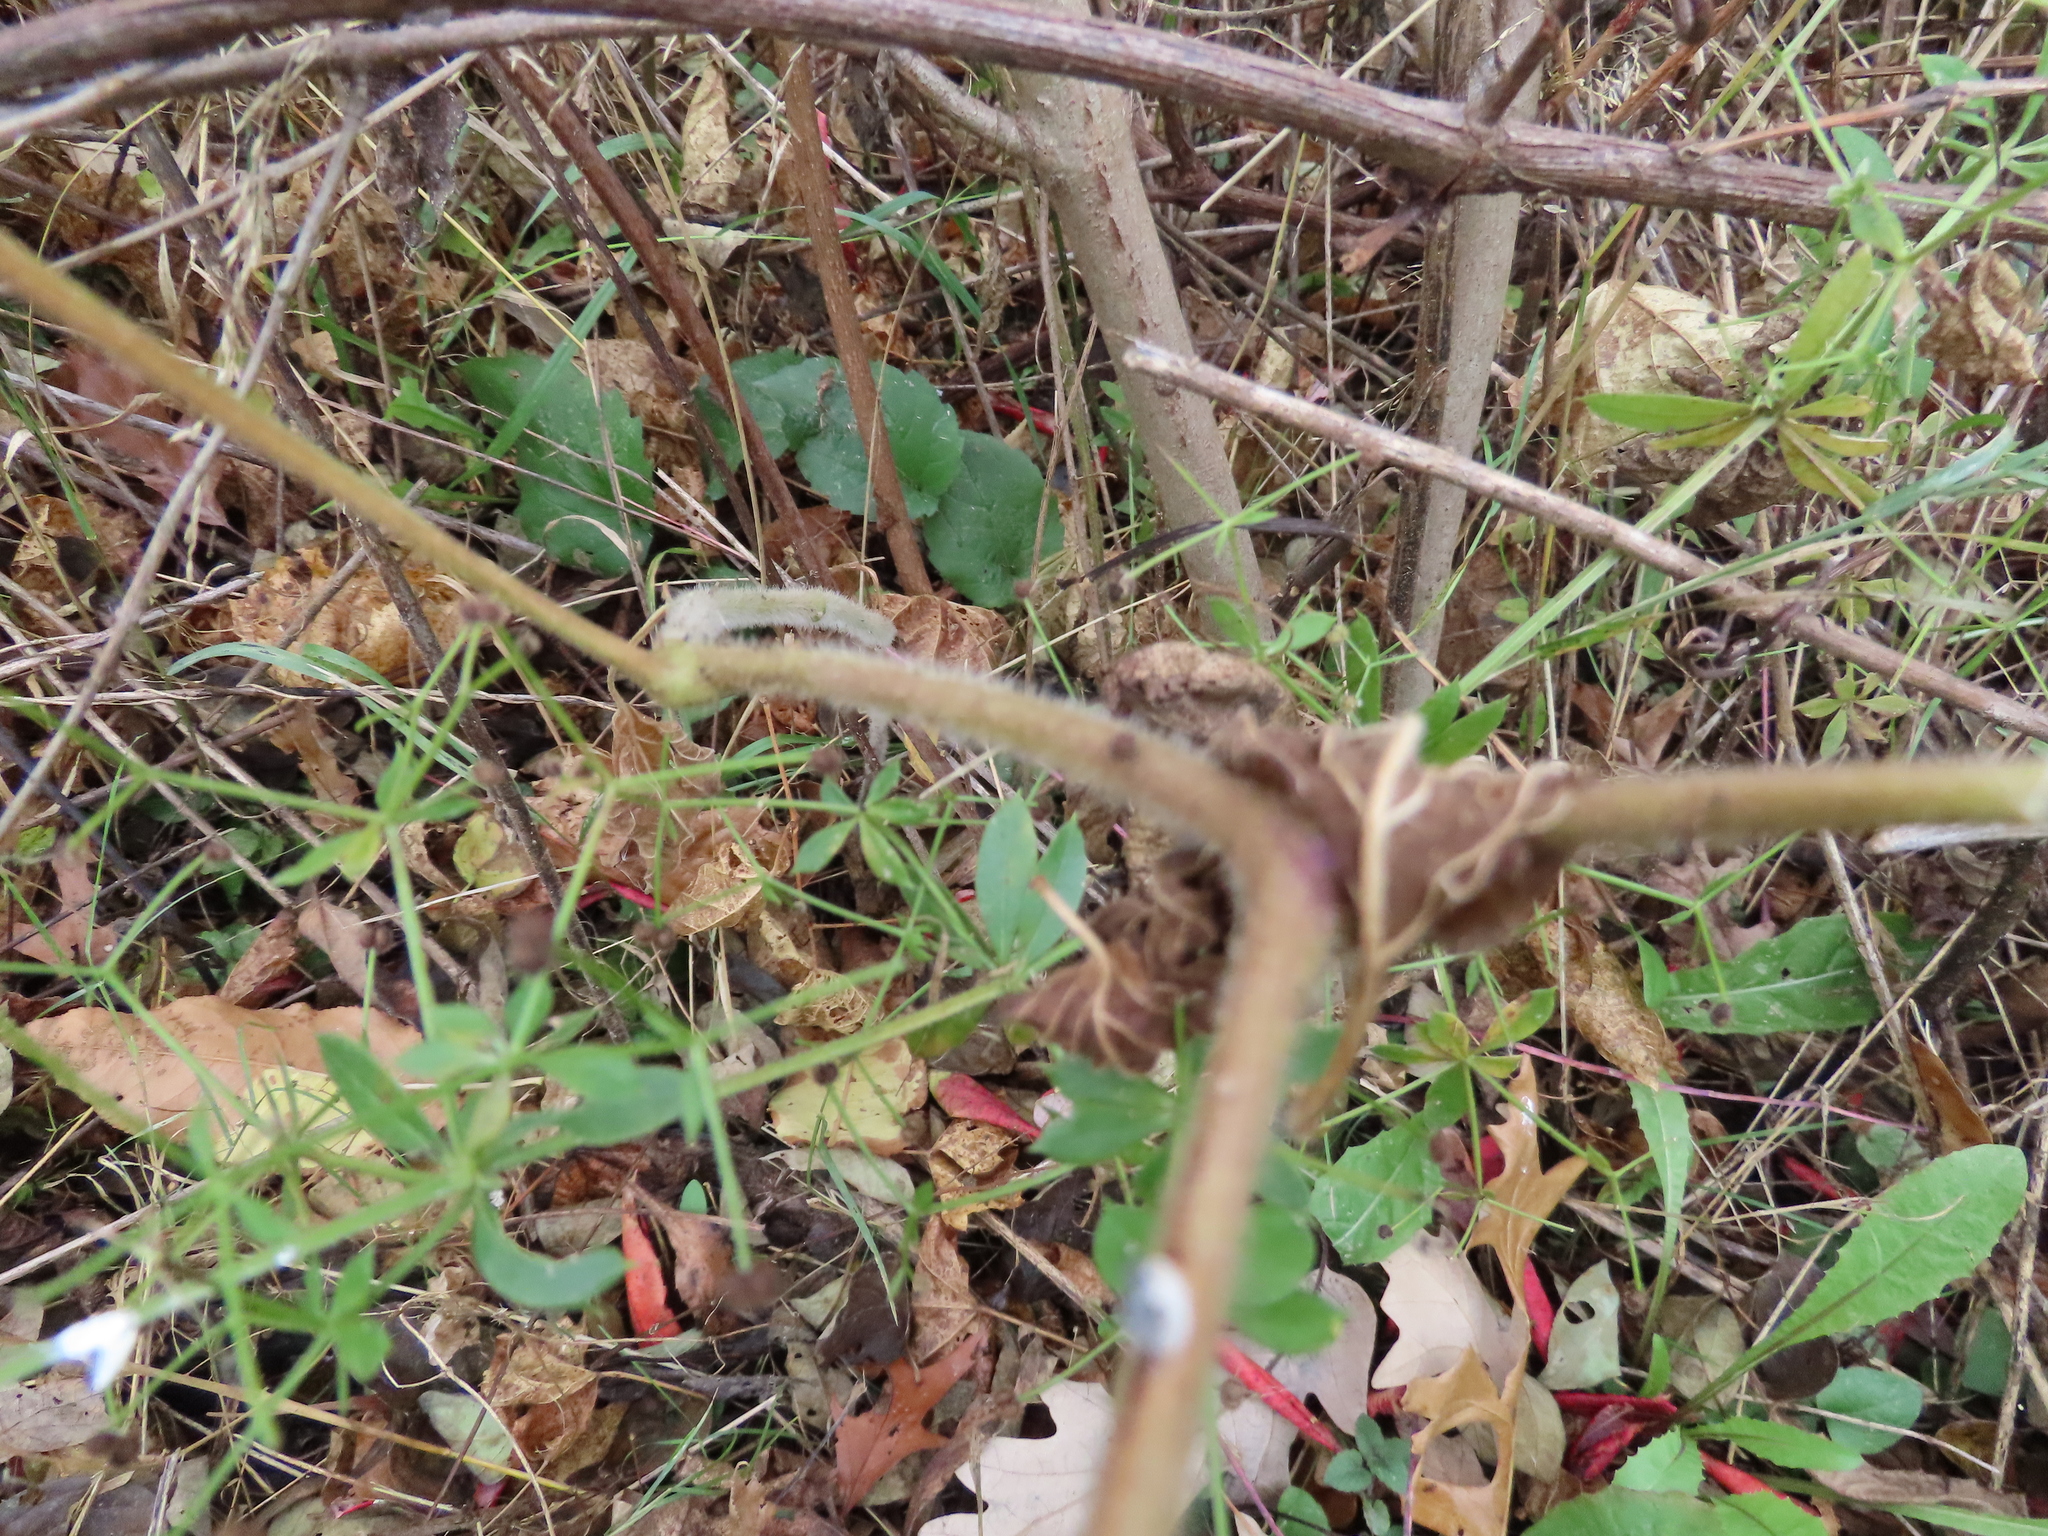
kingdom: Plantae
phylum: Tracheophyta
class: Magnoliopsida
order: Solanales
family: Solanaceae
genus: Physalis
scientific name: Physalis heterophylla
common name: Clammy ground-cherry
